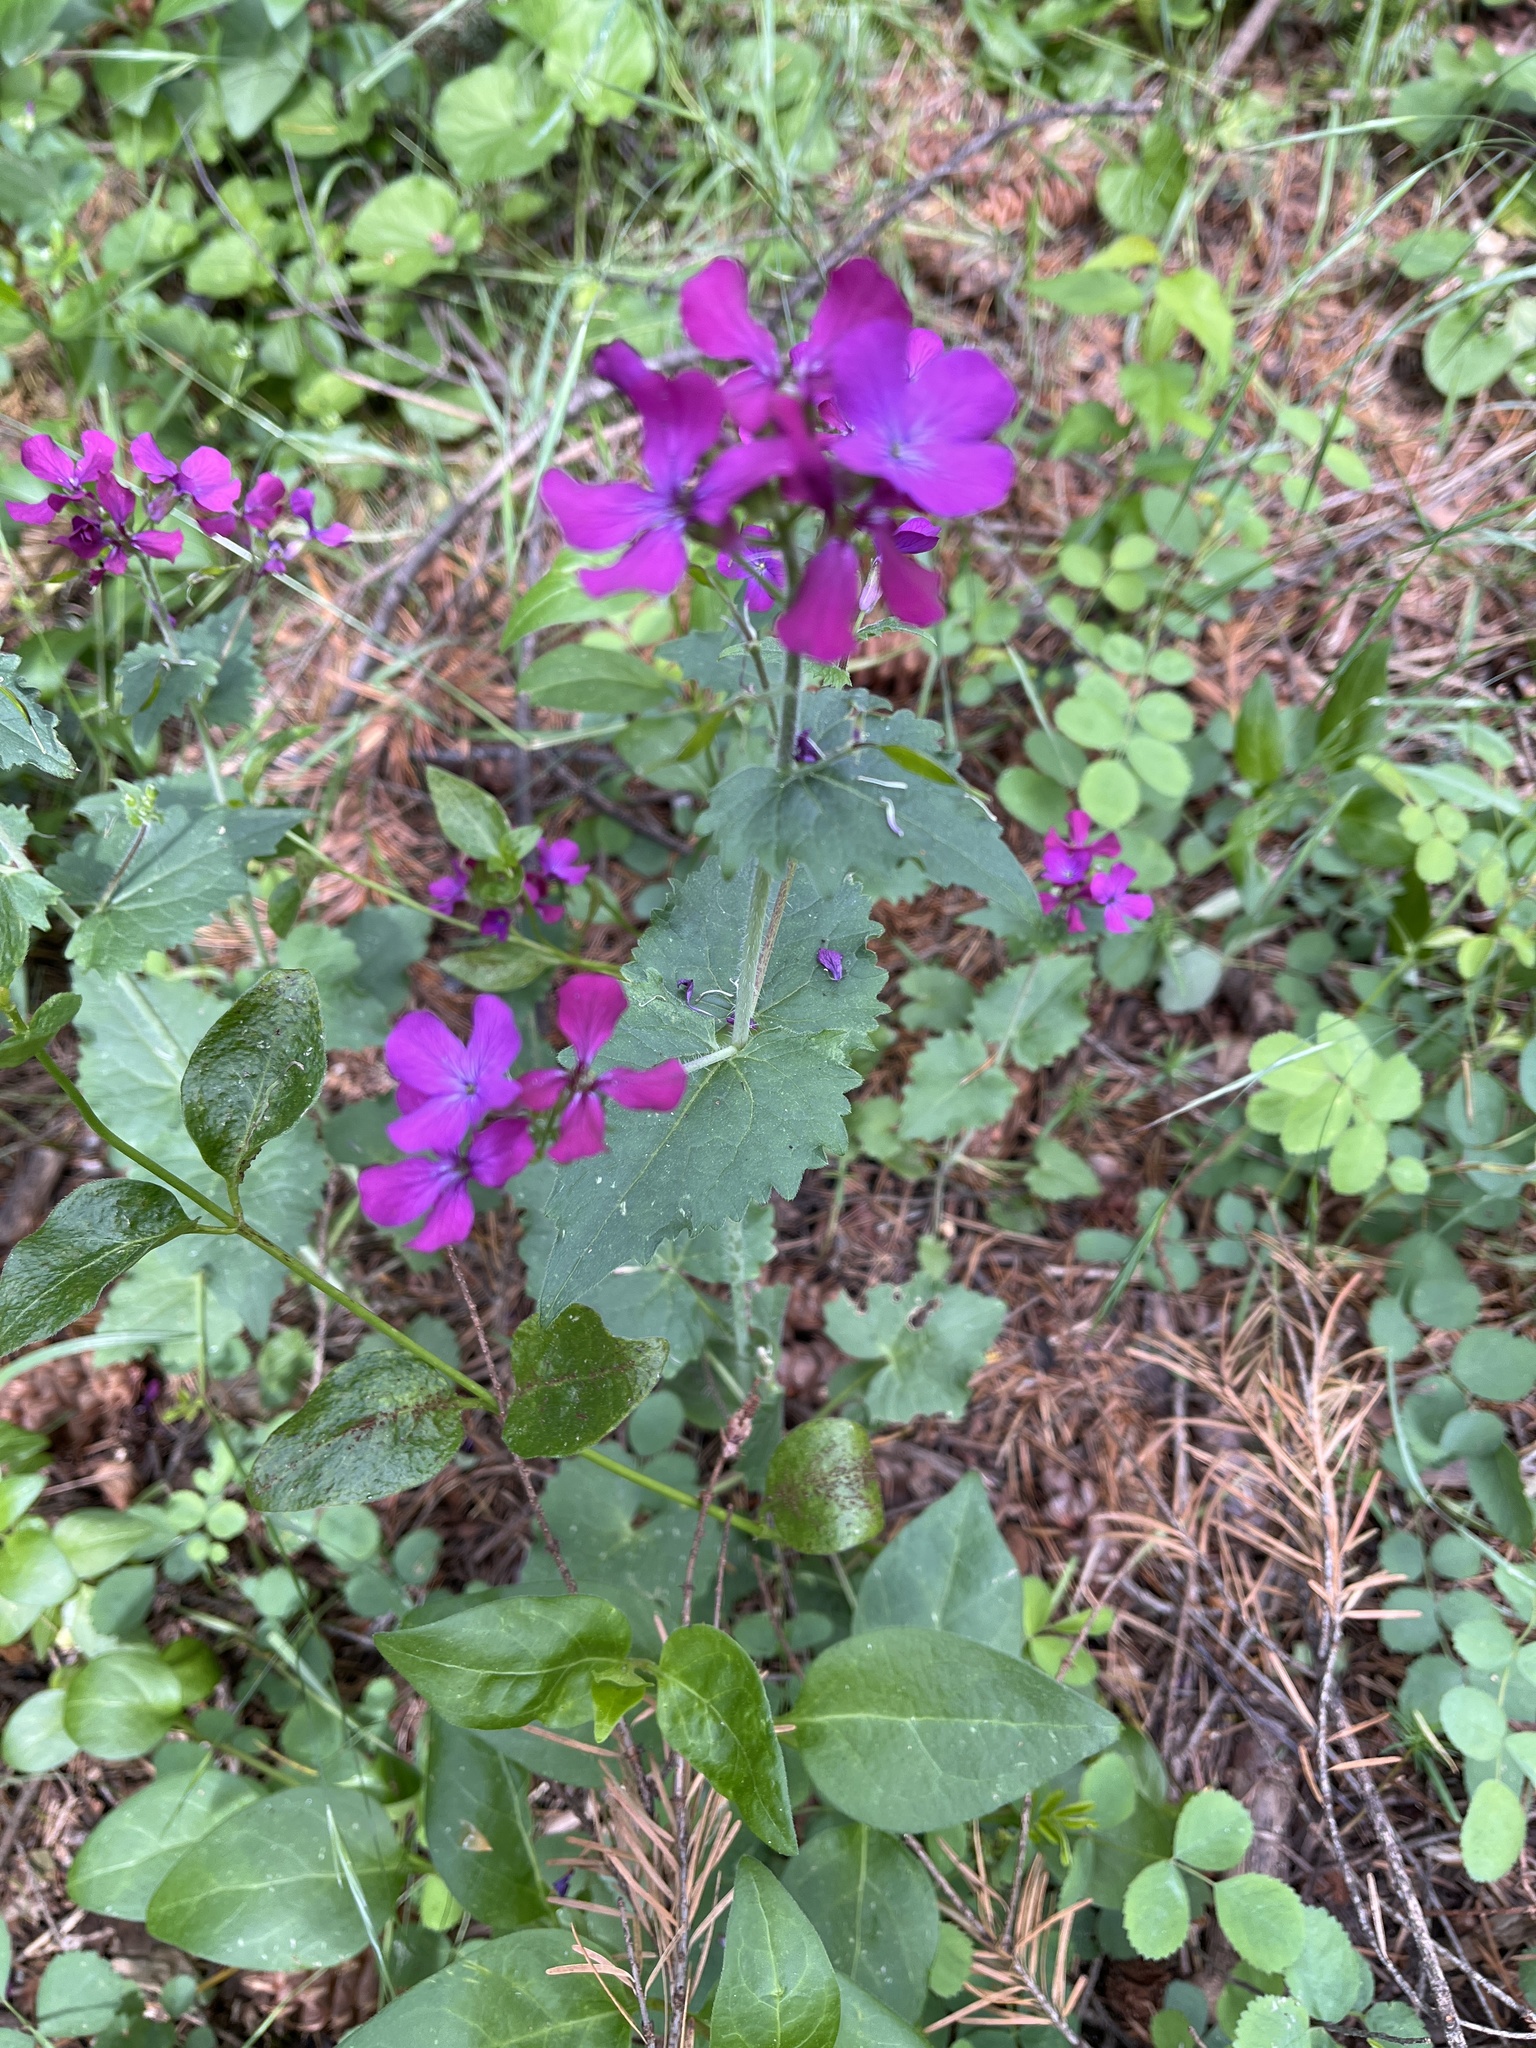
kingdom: Plantae
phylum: Tracheophyta
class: Magnoliopsida
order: Brassicales
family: Brassicaceae
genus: Lunaria
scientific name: Lunaria annua
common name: Honesty
